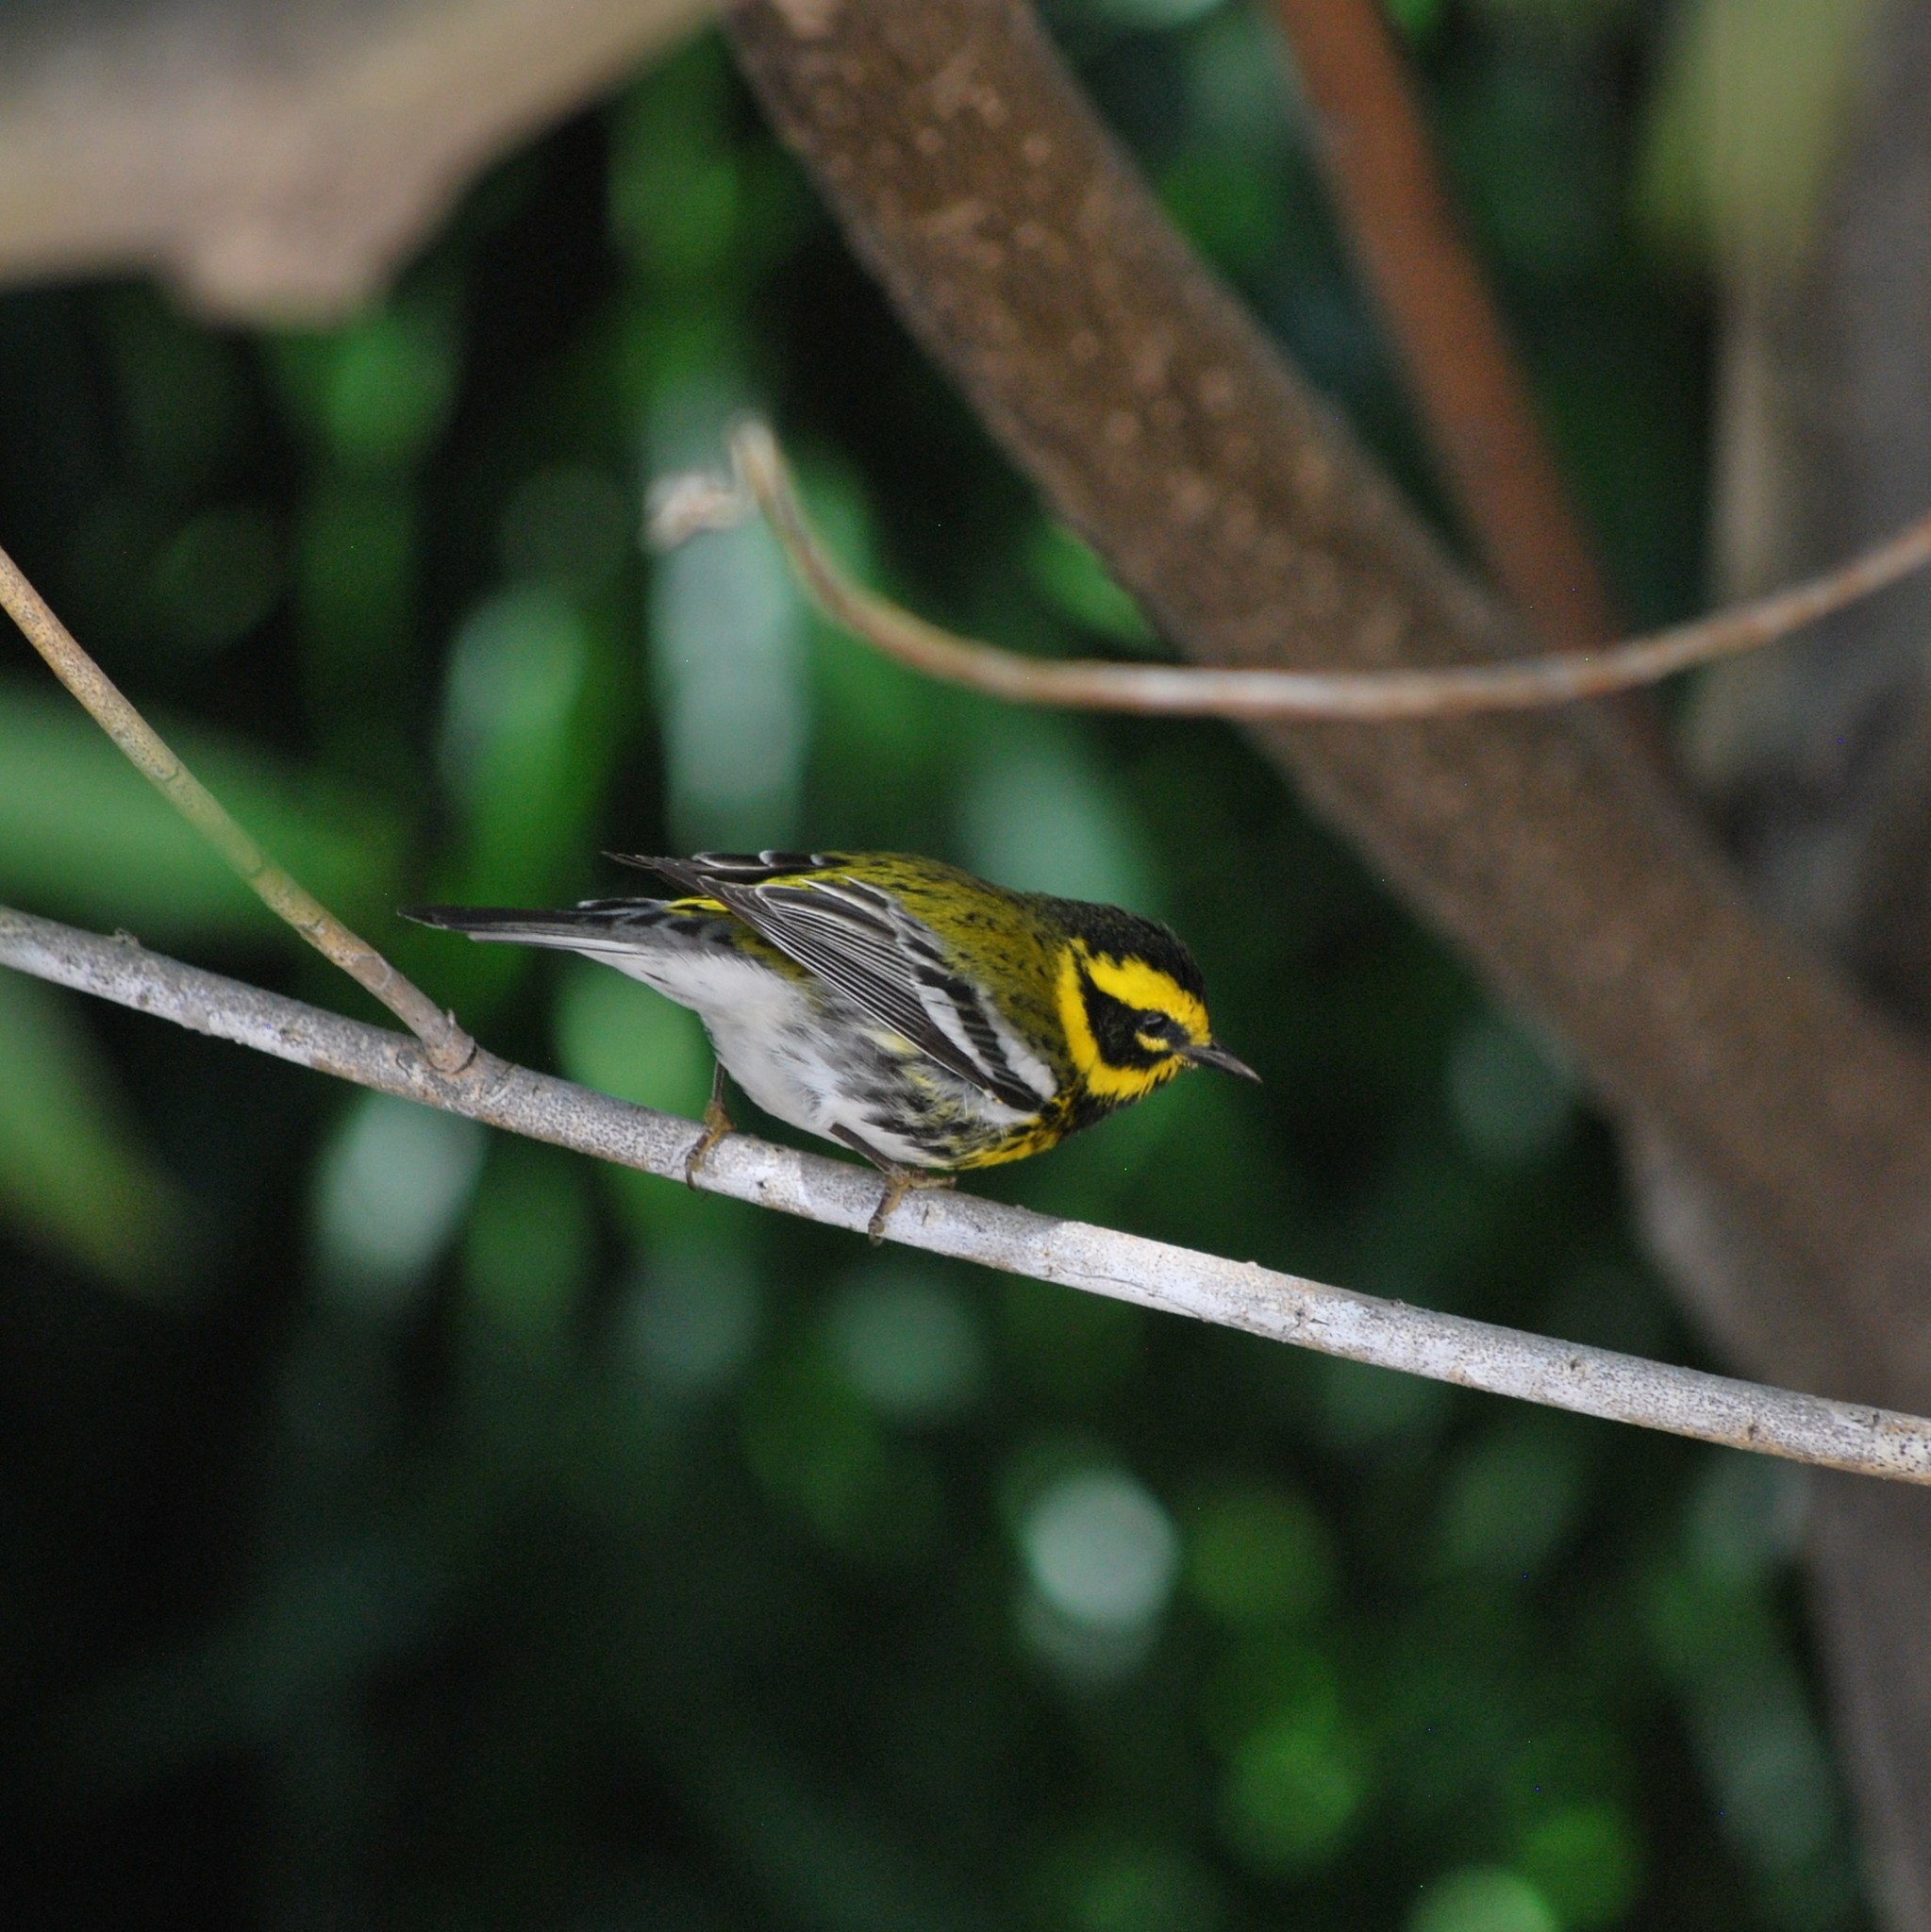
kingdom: Animalia
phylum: Chordata
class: Aves
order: Passeriformes
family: Parulidae
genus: Setophaga
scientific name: Setophaga townsendi
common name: Townsend's warbler
